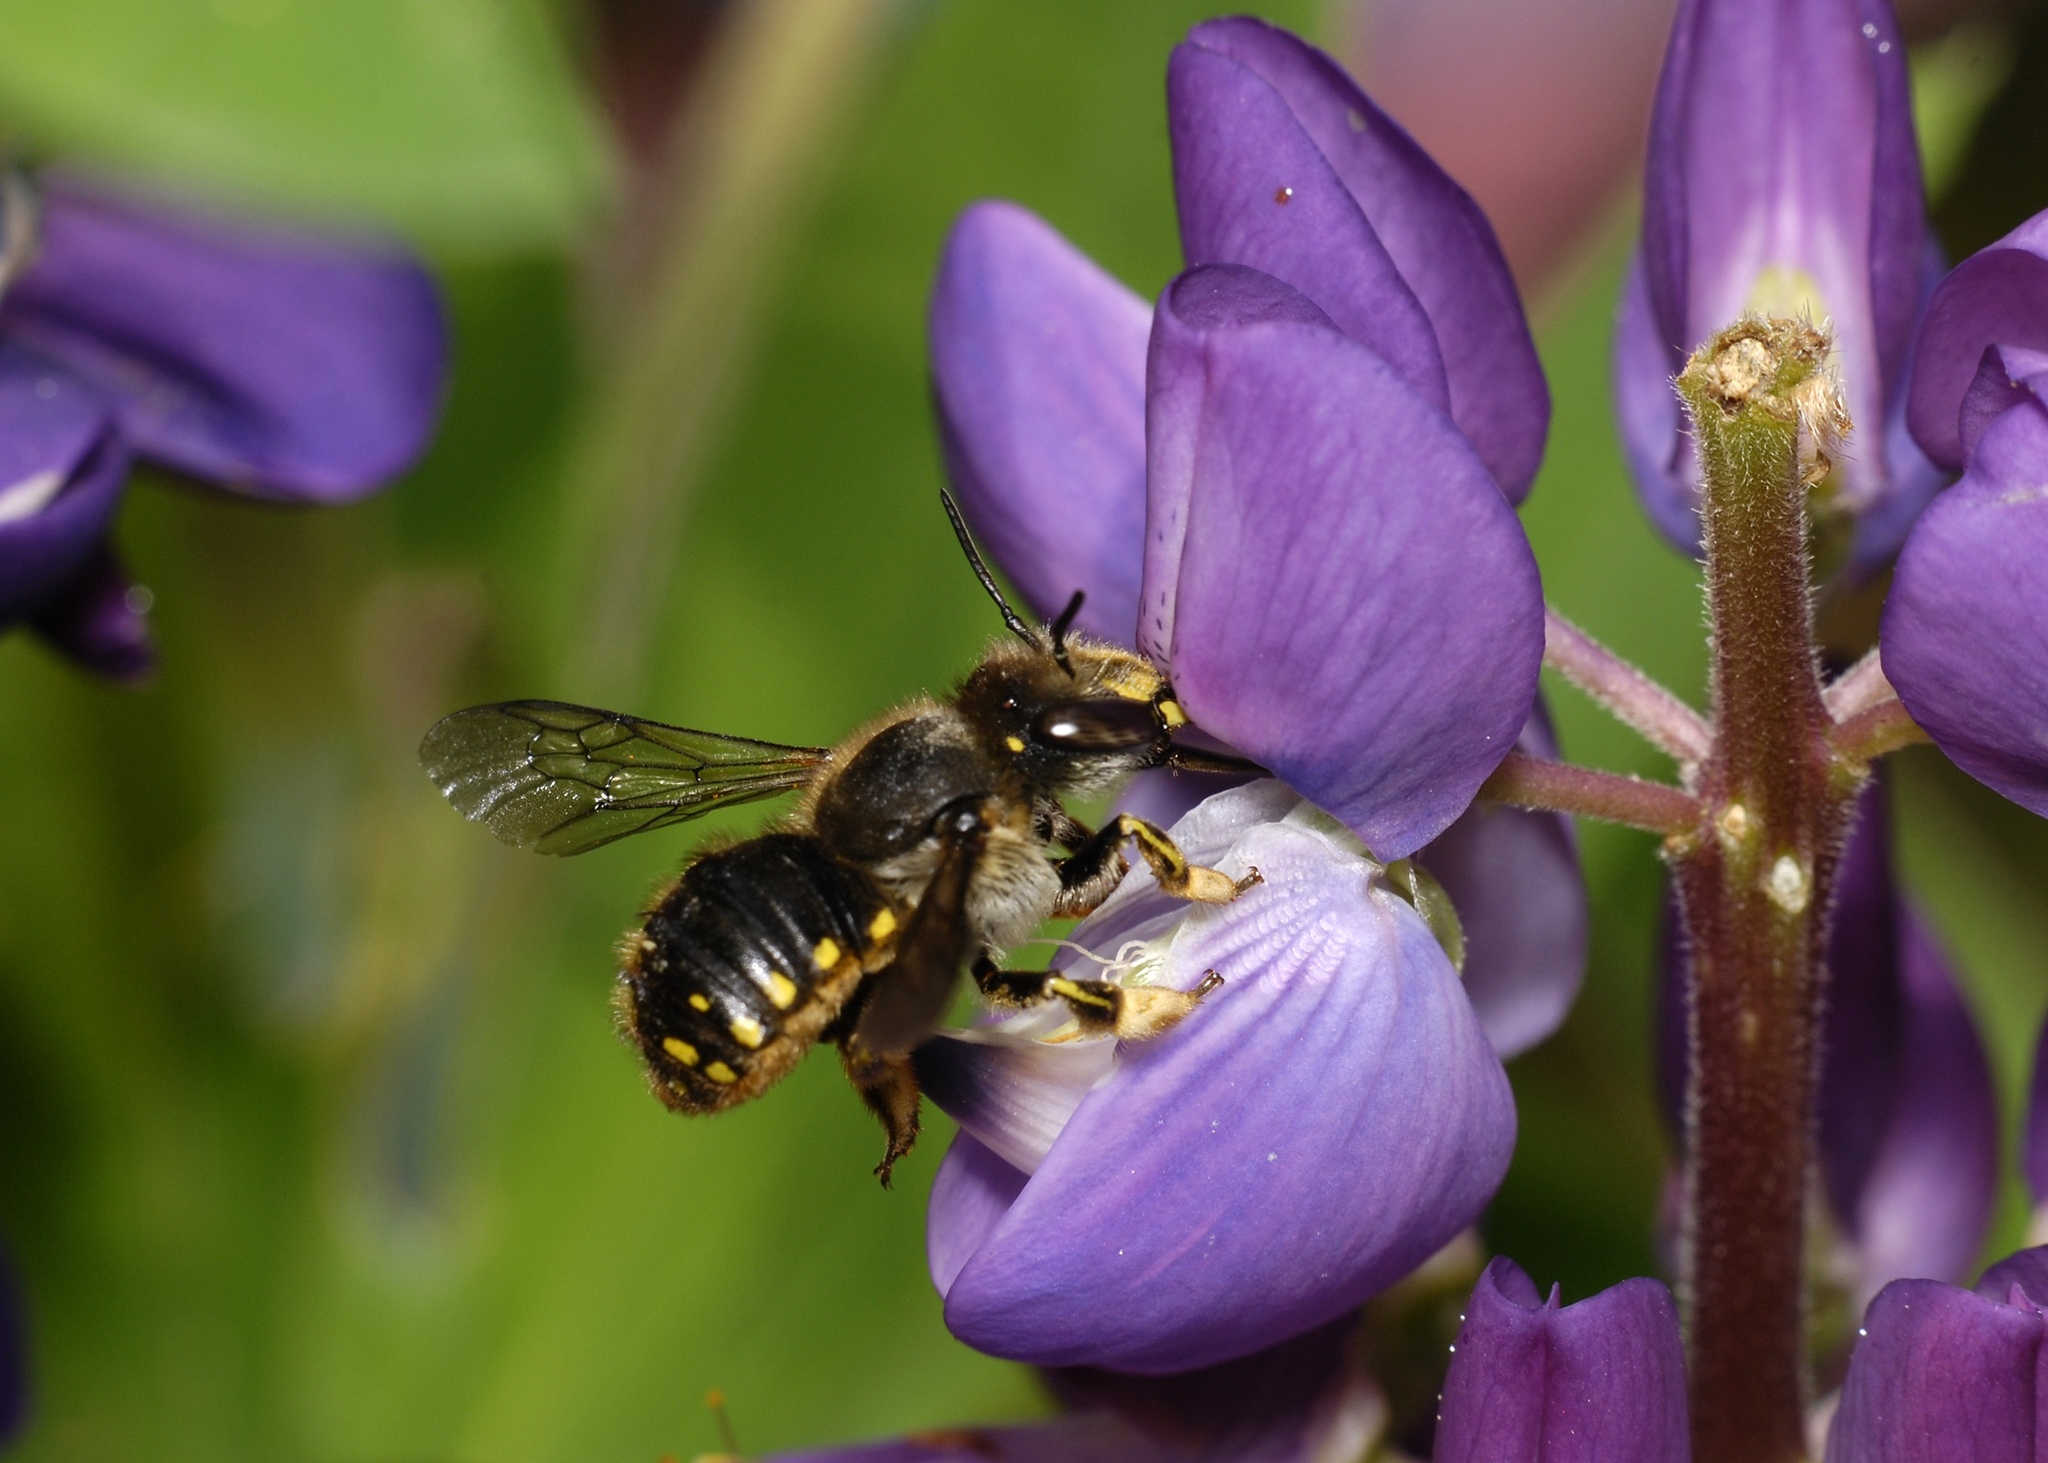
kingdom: Animalia
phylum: Arthropoda
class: Insecta
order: Hymenoptera
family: Megachilidae
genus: Anthidium
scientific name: Anthidium manicatum
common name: Wool carder bee
